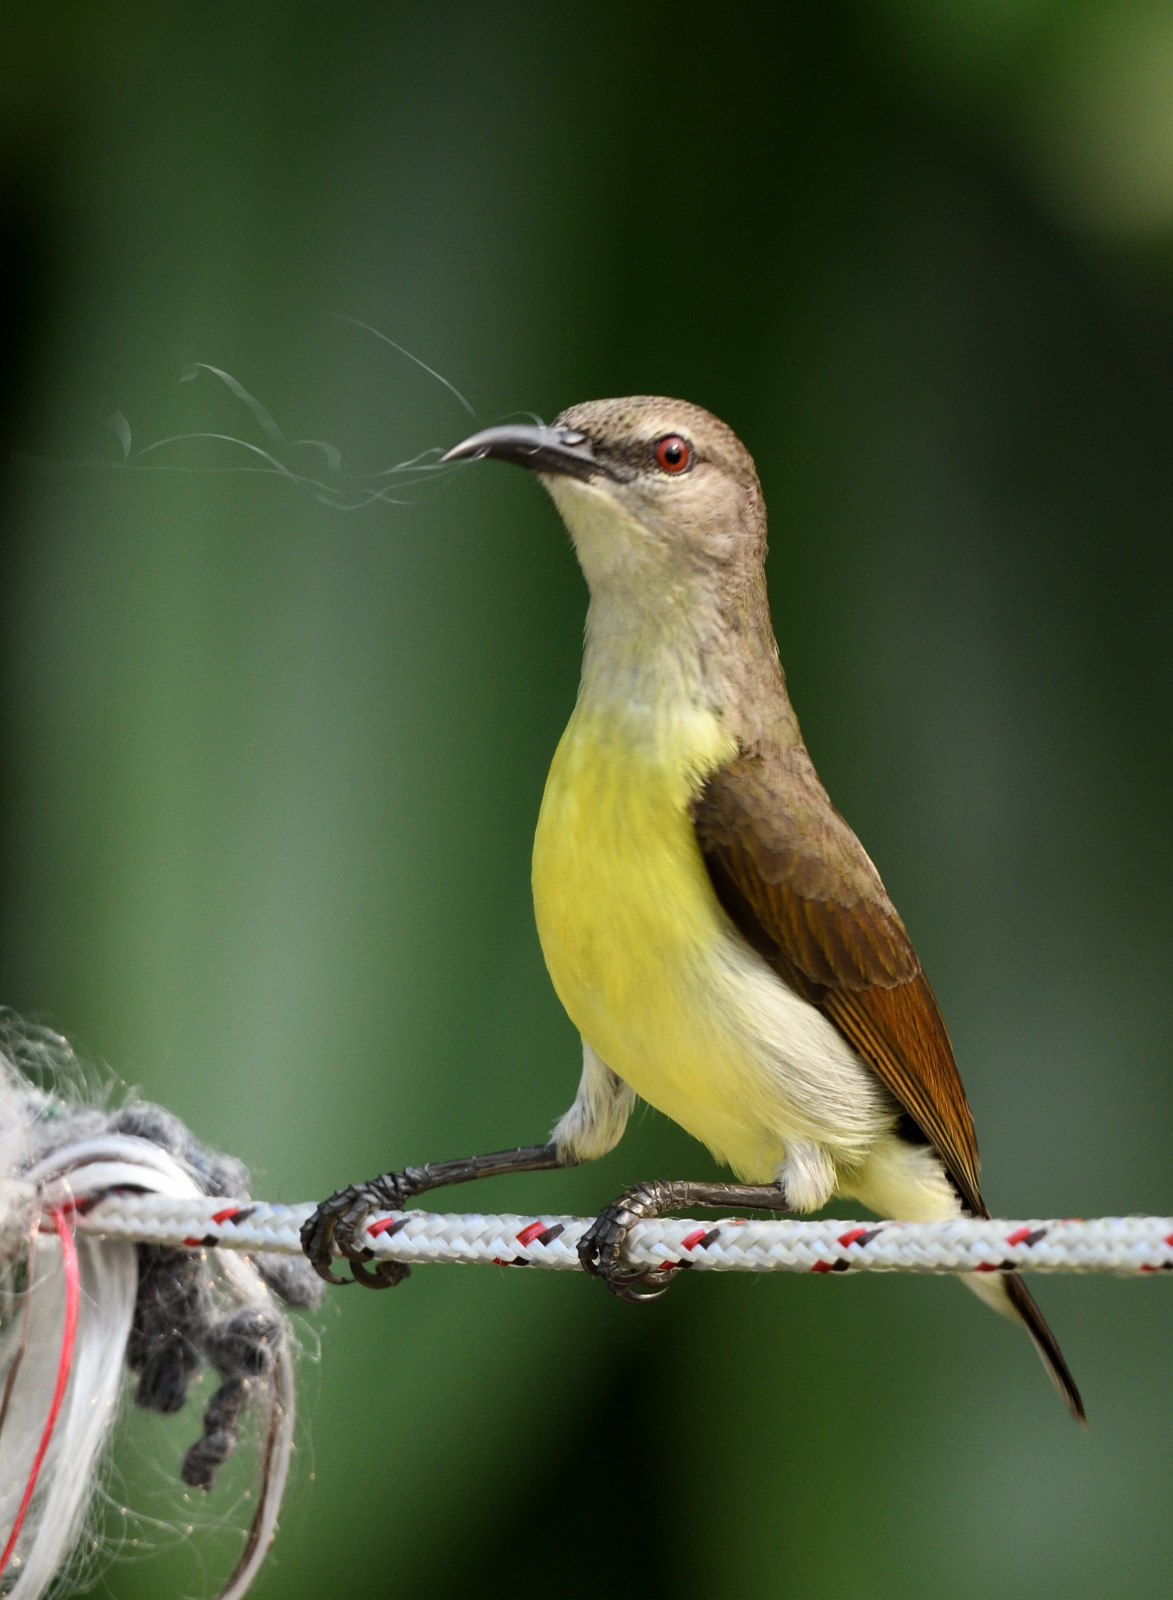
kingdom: Animalia
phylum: Chordata
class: Aves
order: Passeriformes
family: Nectariniidae
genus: Leptocoma
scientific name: Leptocoma zeylonica
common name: Purple-rumped sunbird
